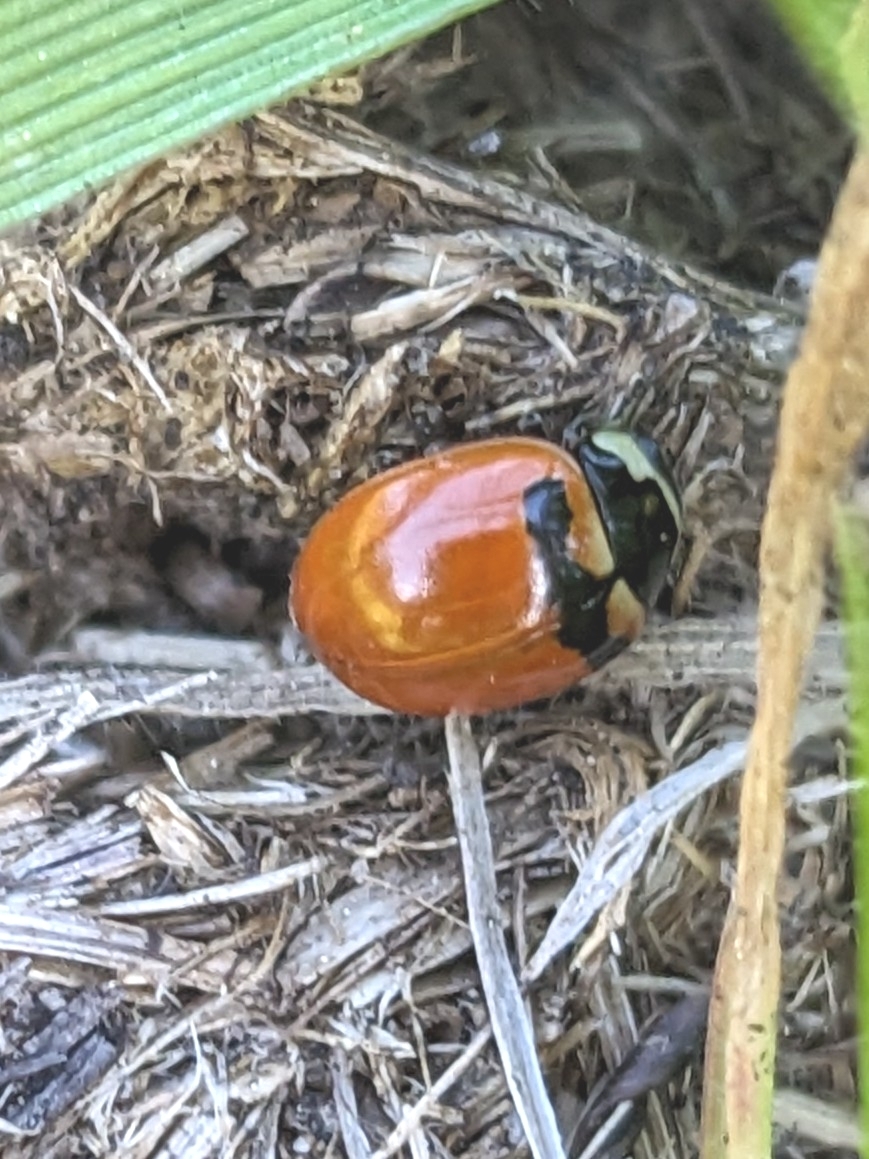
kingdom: Animalia
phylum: Arthropoda
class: Insecta
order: Coleoptera
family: Coccinellidae
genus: Coccinella
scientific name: Coccinella trifasciata
